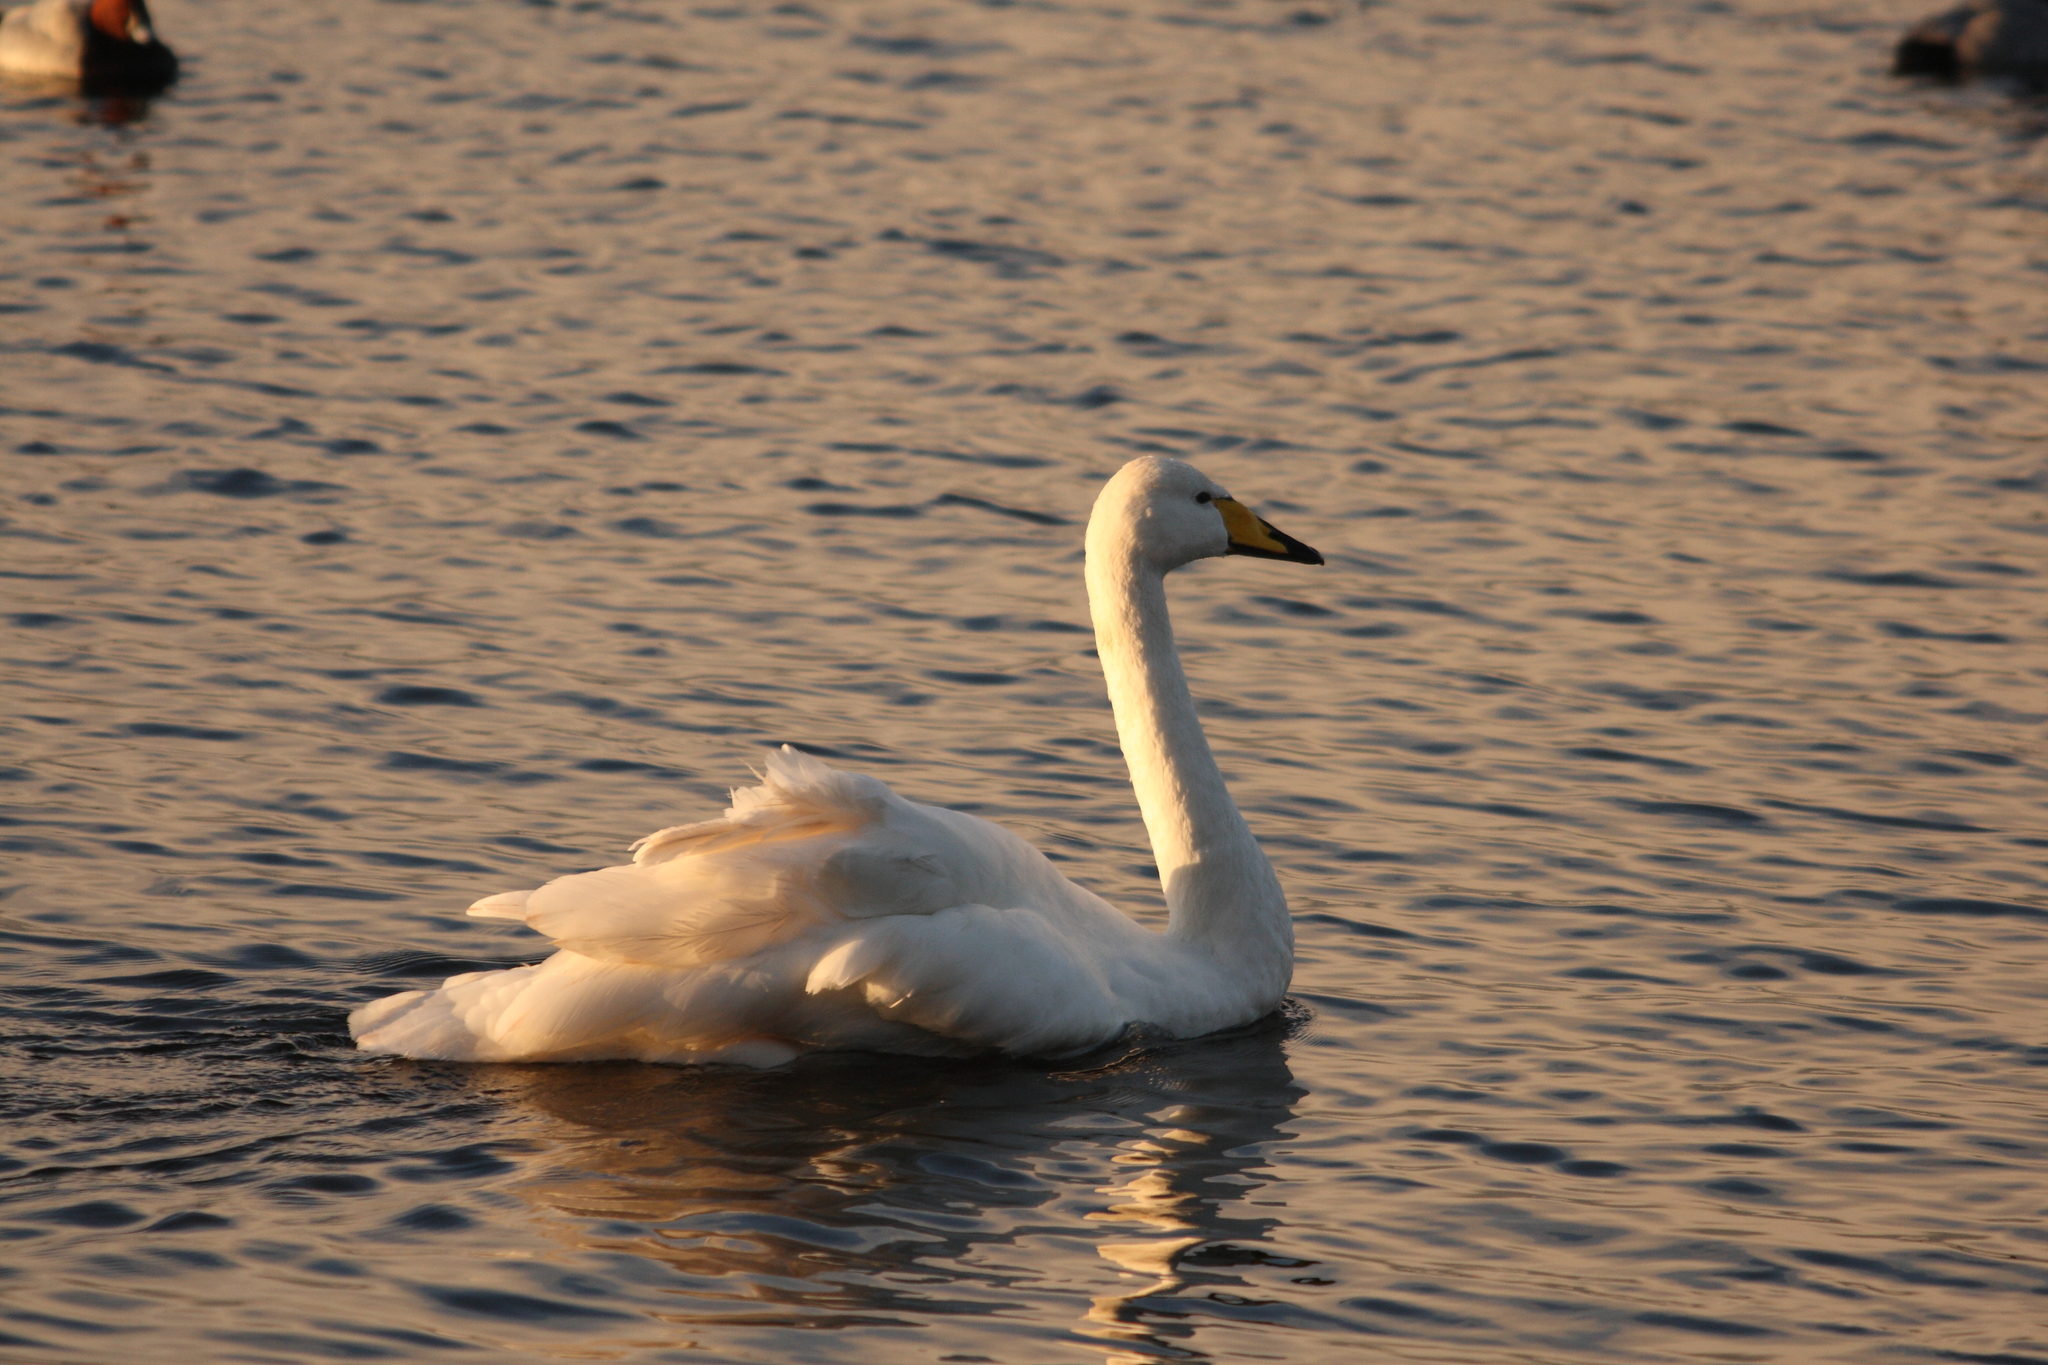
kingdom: Animalia
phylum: Chordata
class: Aves
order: Anseriformes
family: Anatidae
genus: Cygnus
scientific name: Cygnus cygnus
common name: Whooper swan
